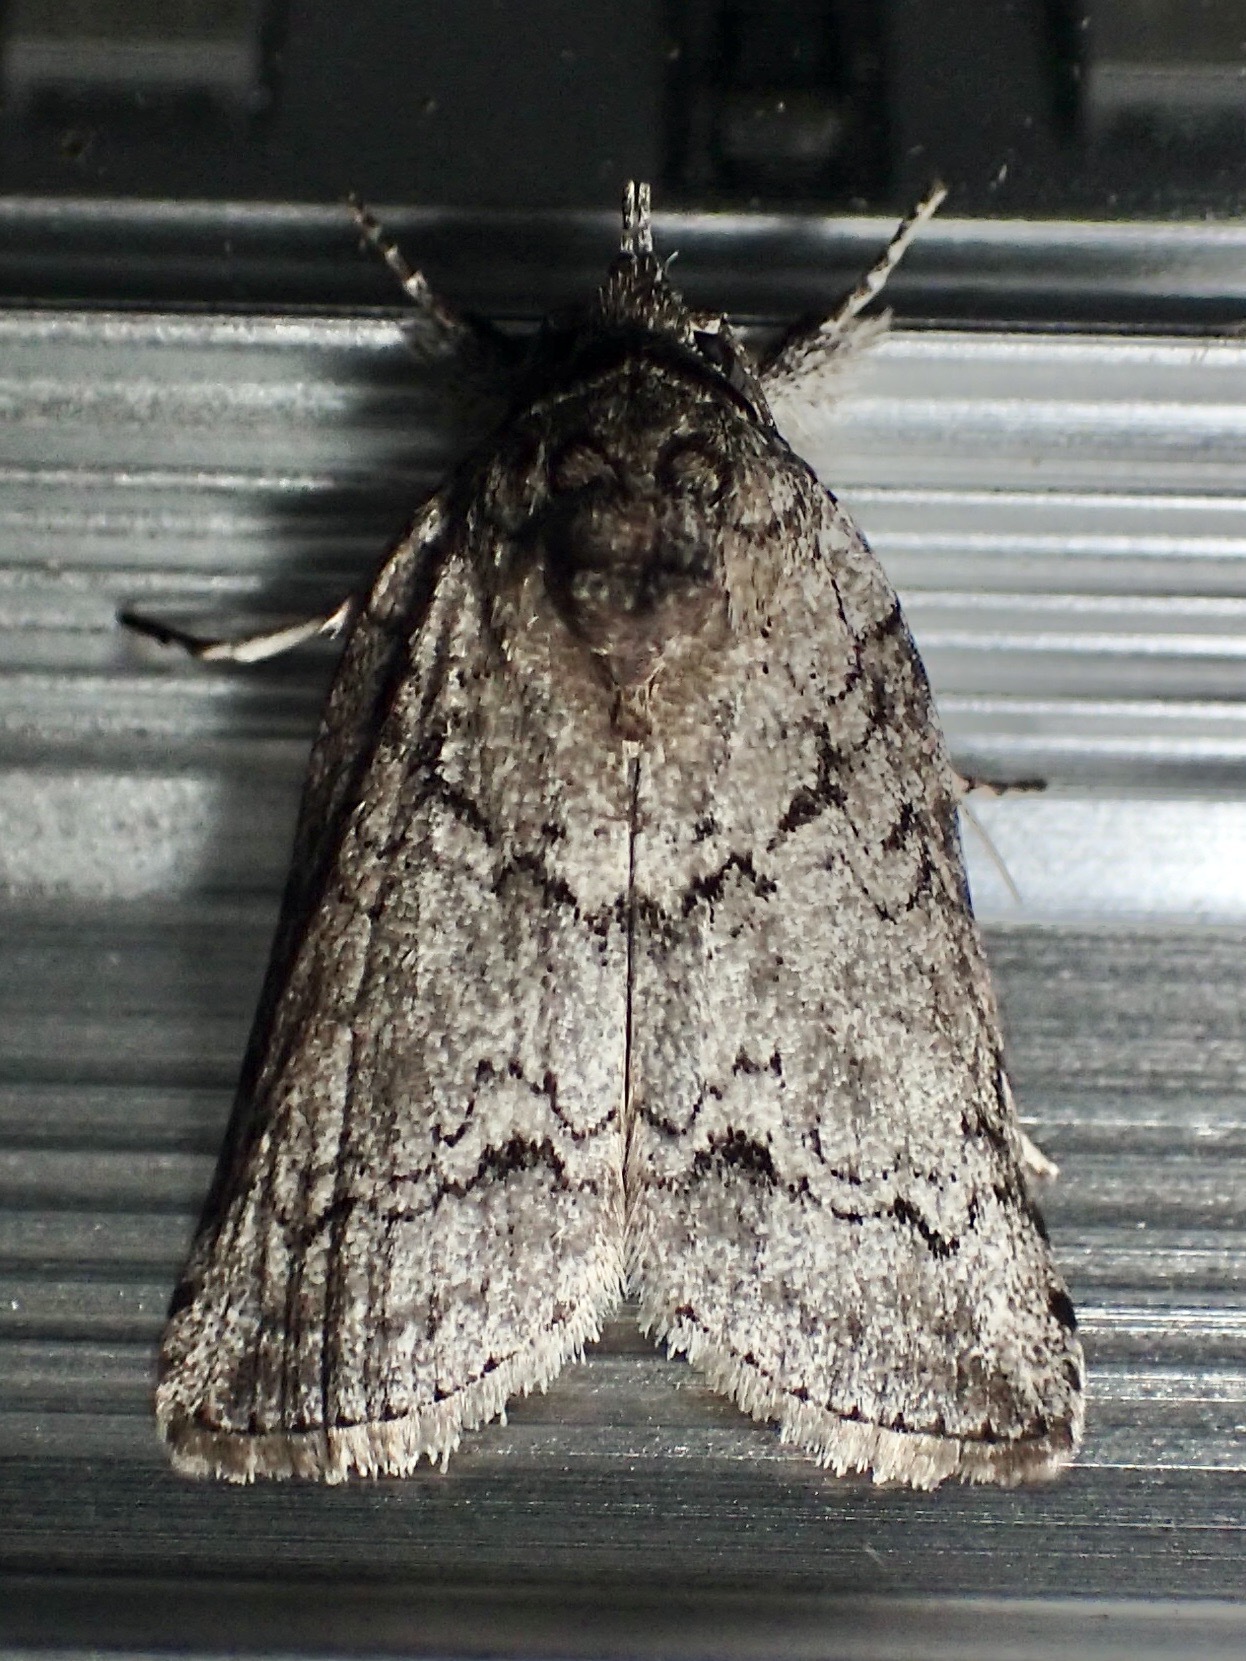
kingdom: Animalia
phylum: Arthropoda
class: Insecta
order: Lepidoptera
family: Nolidae
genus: Nycteola
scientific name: Nycteola polycyma
